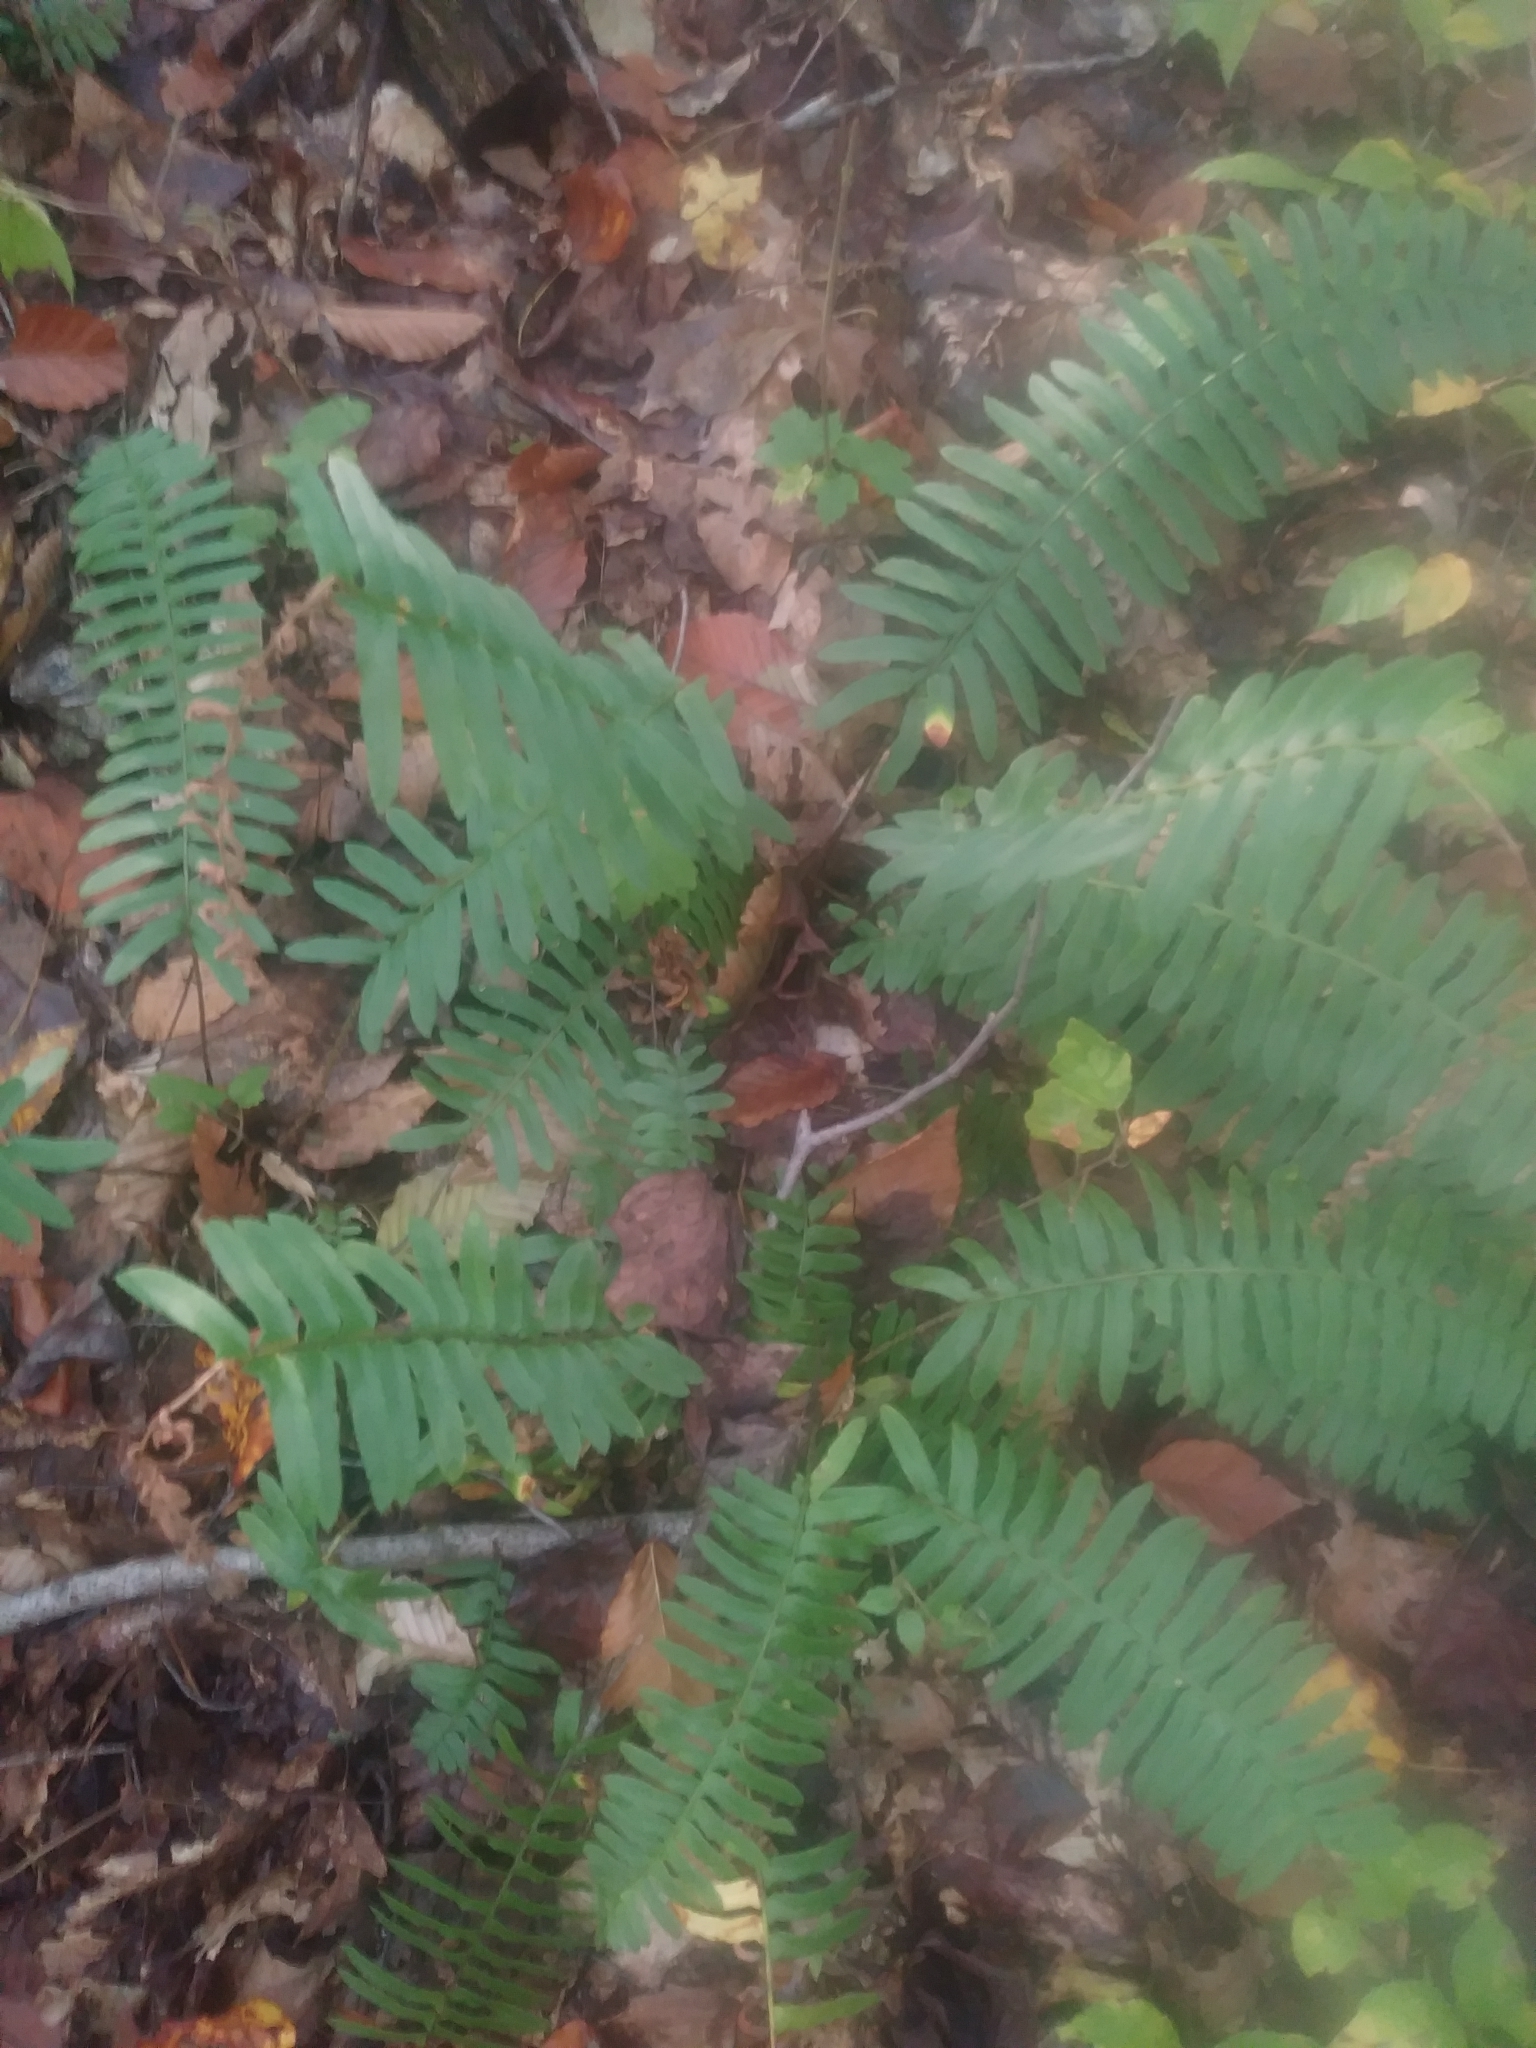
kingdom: Plantae
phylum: Tracheophyta
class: Polypodiopsida
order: Polypodiales
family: Dryopteridaceae
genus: Polystichum
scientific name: Polystichum acrostichoides
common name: Christmas fern
